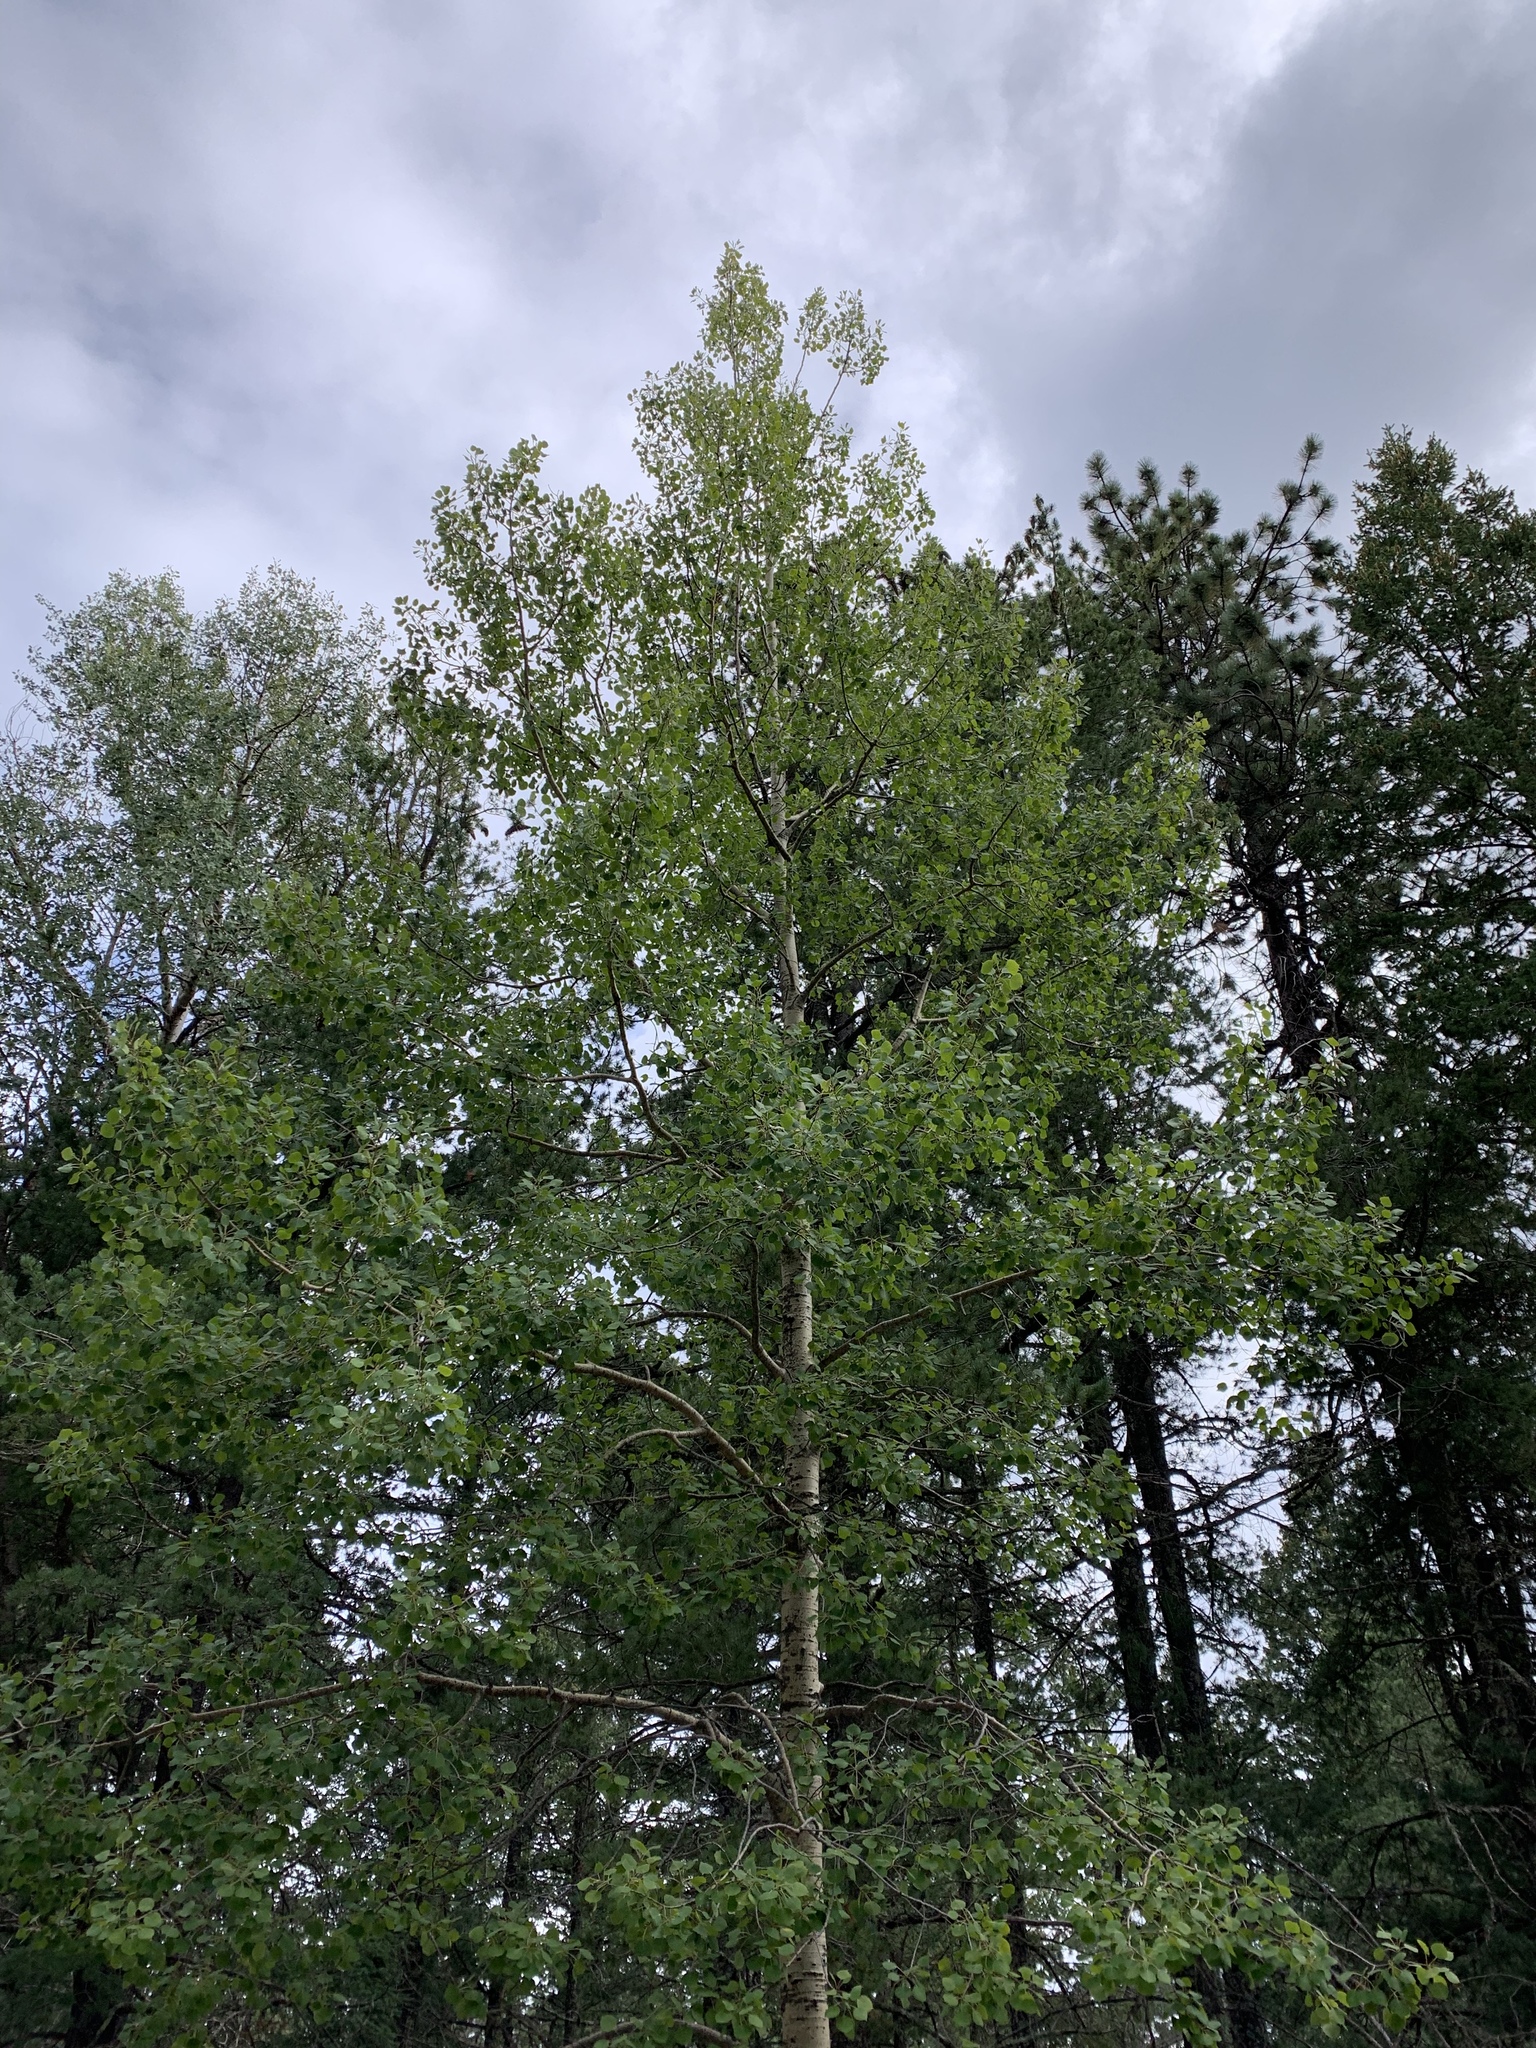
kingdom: Plantae
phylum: Tracheophyta
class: Magnoliopsida
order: Malpighiales
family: Salicaceae
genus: Populus
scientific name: Populus tremuloides
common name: Quaking aspen
